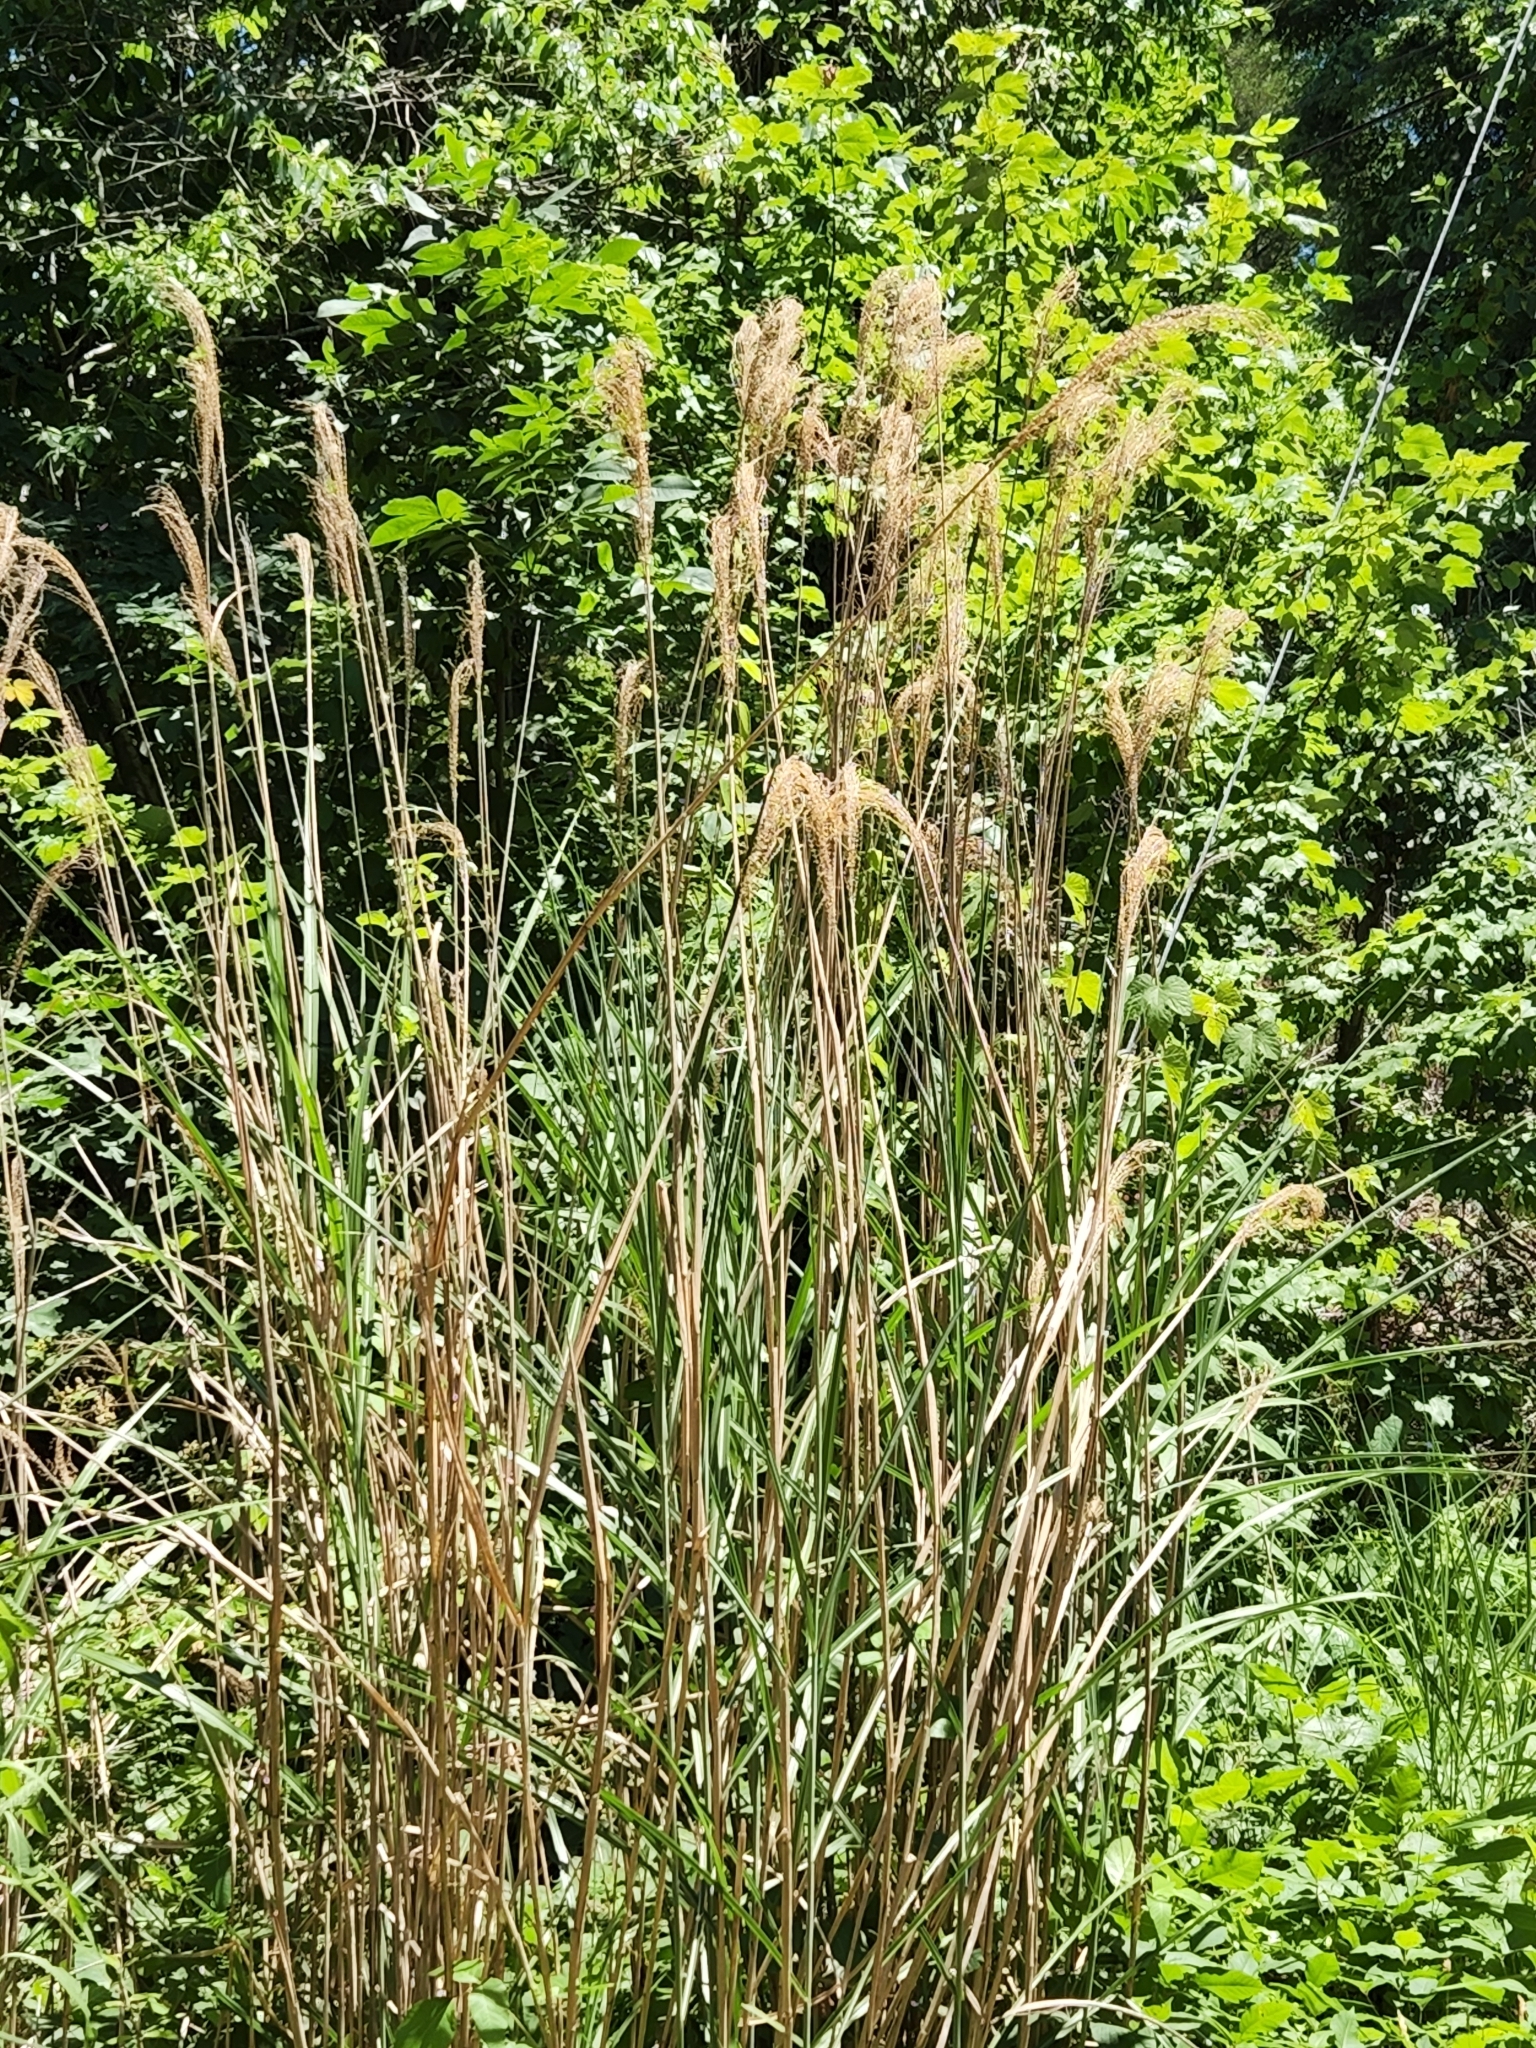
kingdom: Plantae
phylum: Tracheophyta
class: Liliopsida
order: Poales
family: Poaceae
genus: Miscanthus
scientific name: Miscanthus sinensis
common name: Chinese silvergrass
